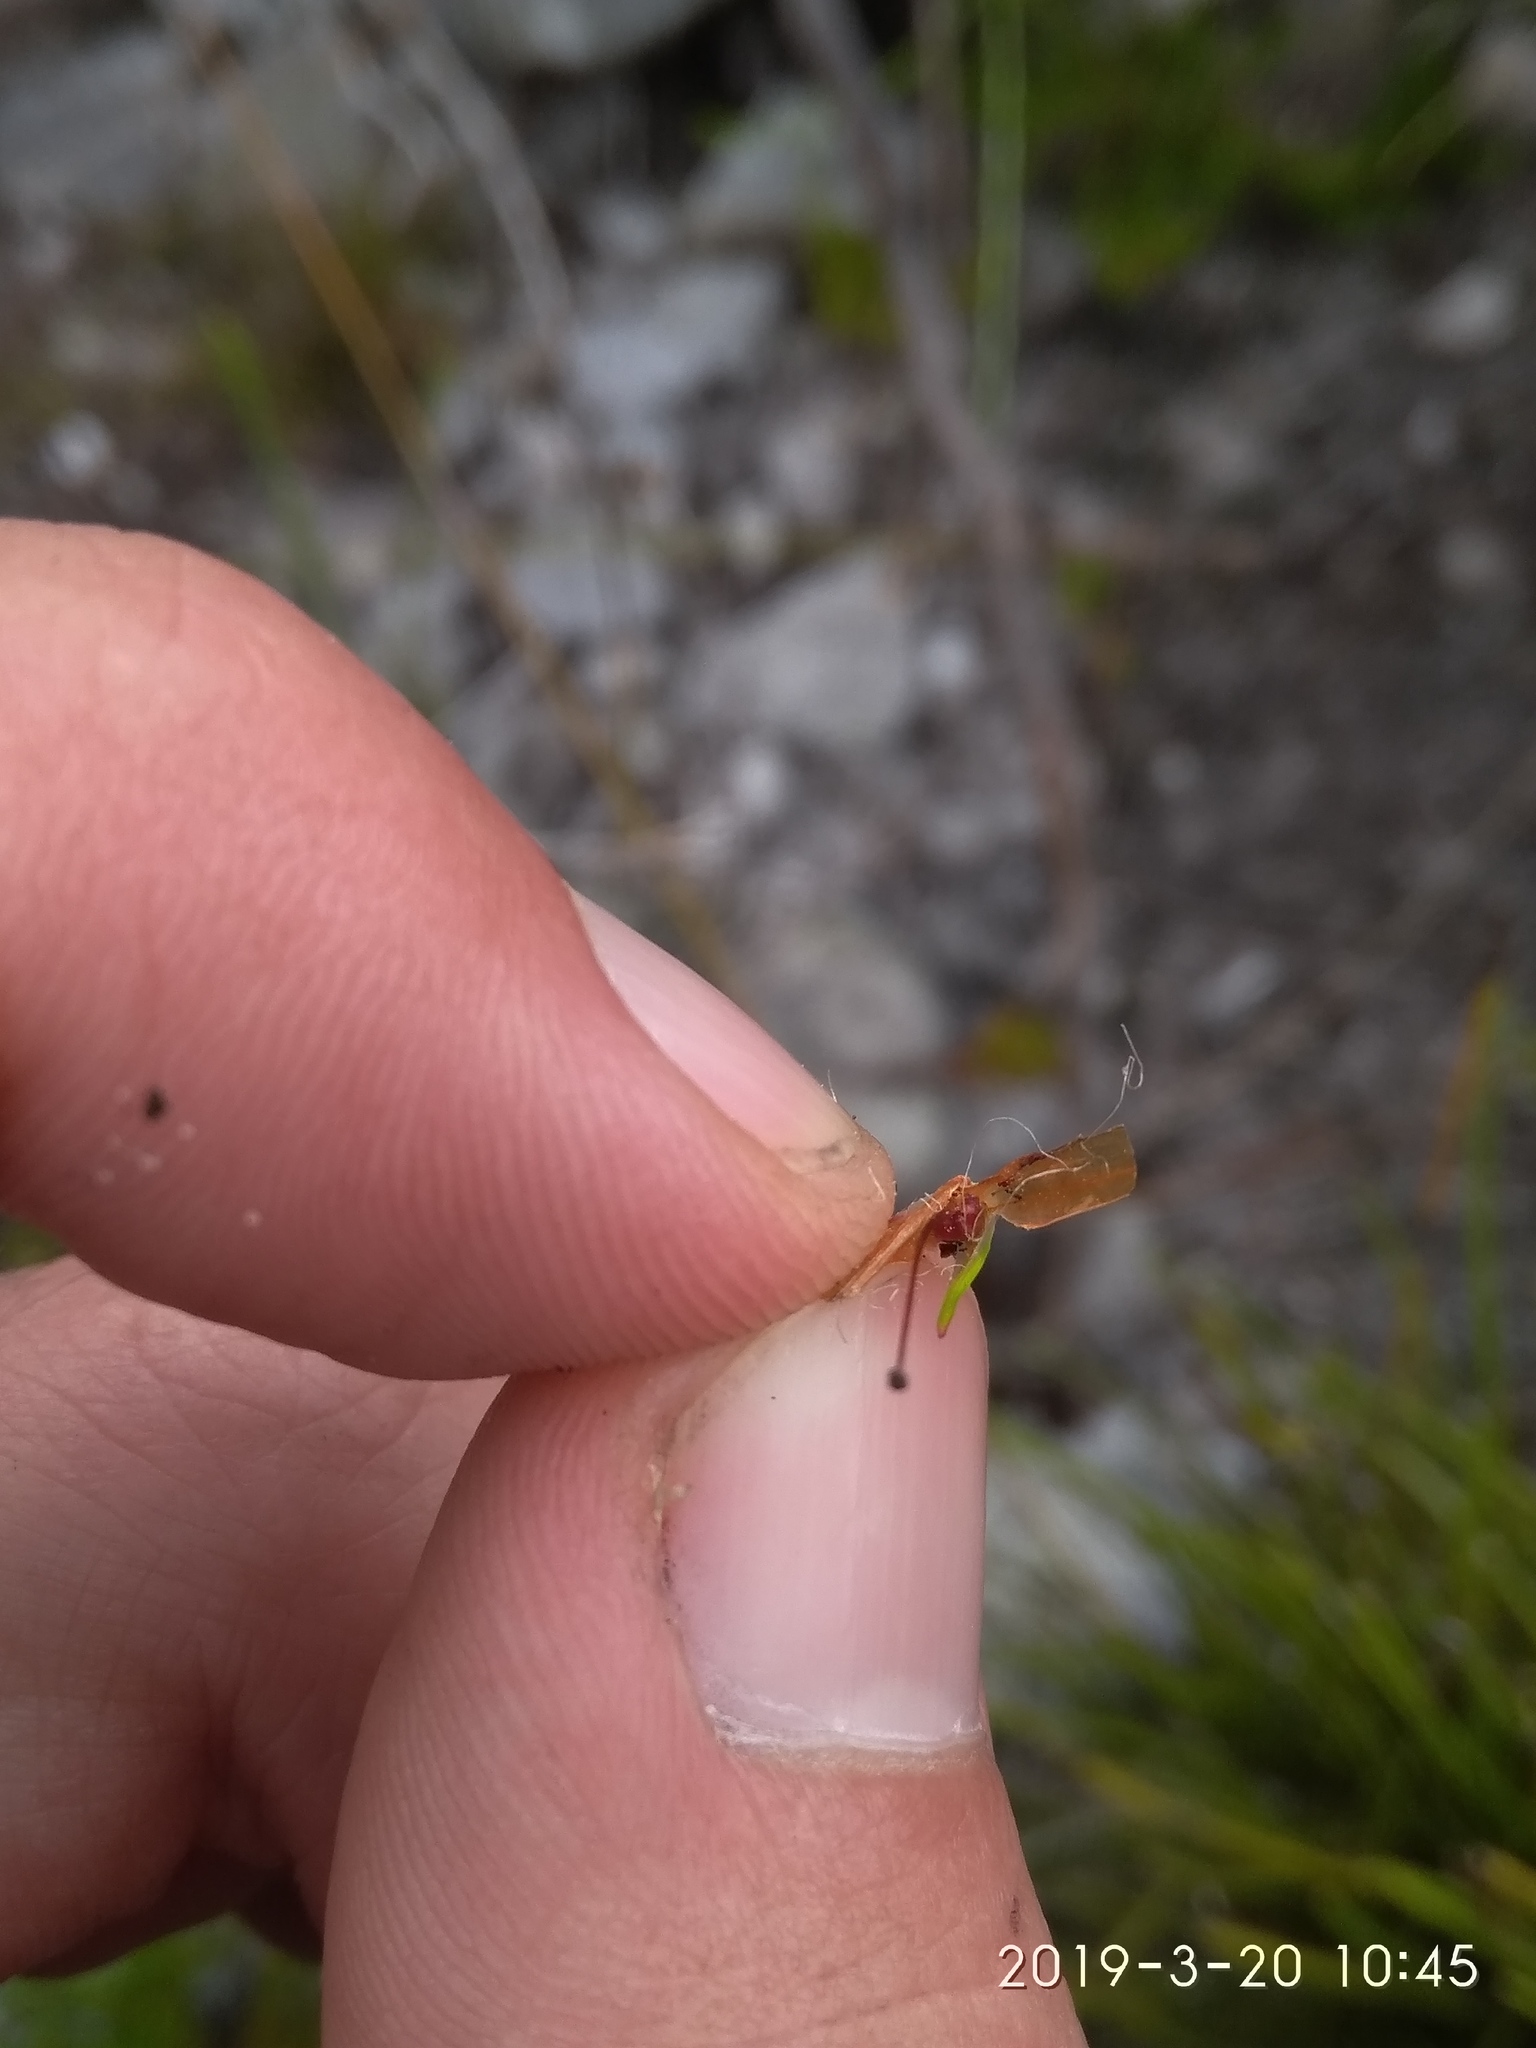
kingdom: Plantae
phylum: Tracheophyta
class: Magnoliopsida
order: Ericales
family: Ericaceae
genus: Erica
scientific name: Erica praenitens
